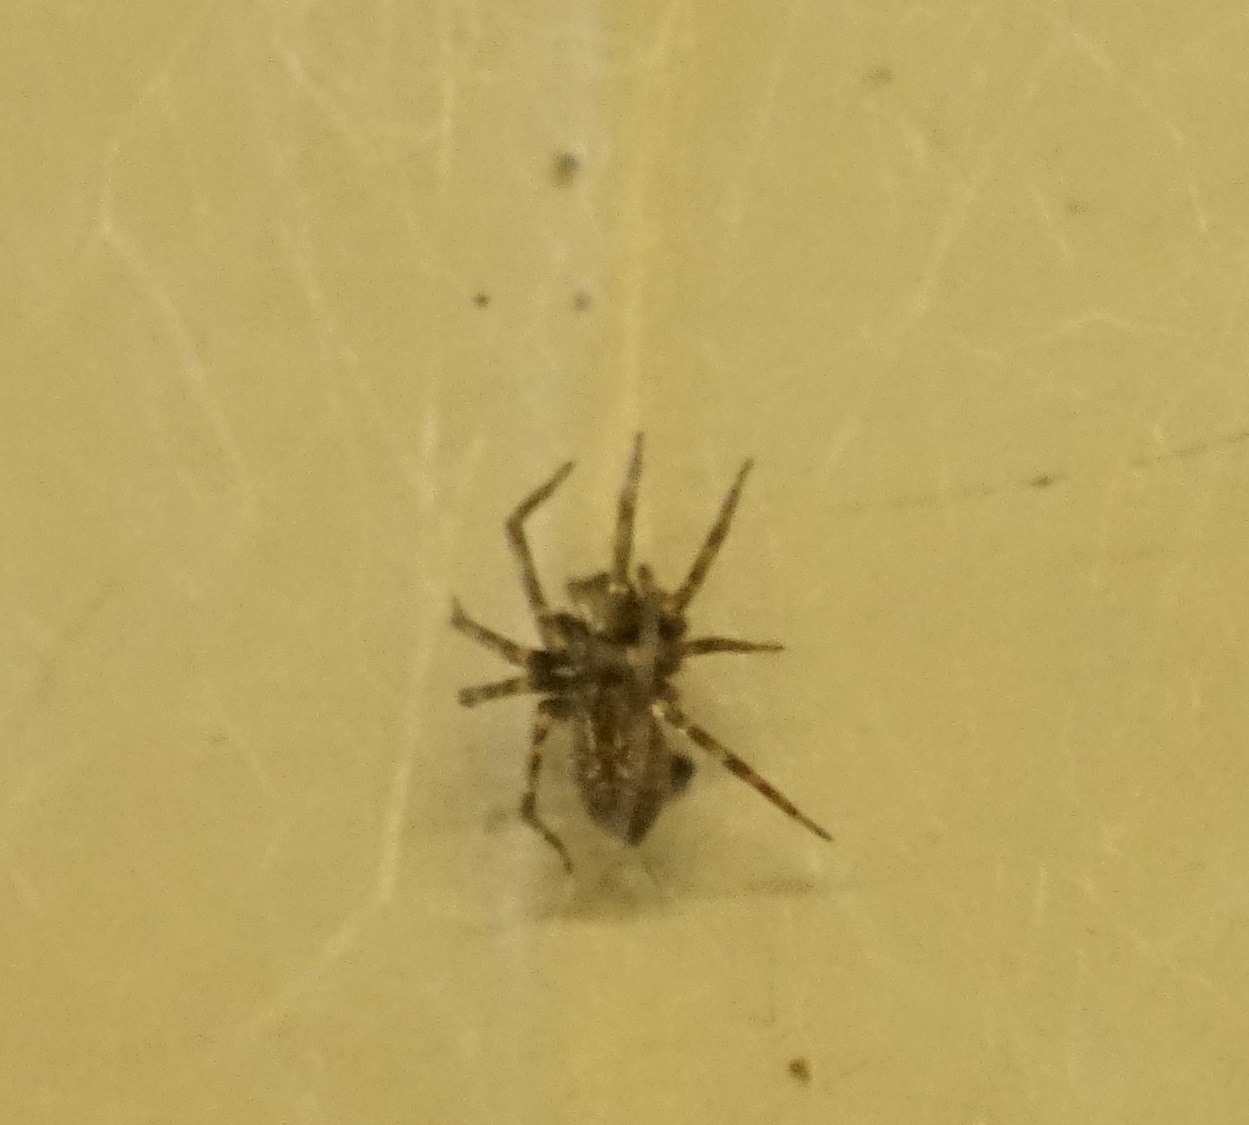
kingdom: Animalia
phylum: Arthropoda
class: Arachnida
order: Araneae
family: Desidae
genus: Badumna
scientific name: Badumna longinqua
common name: Gray house spider
